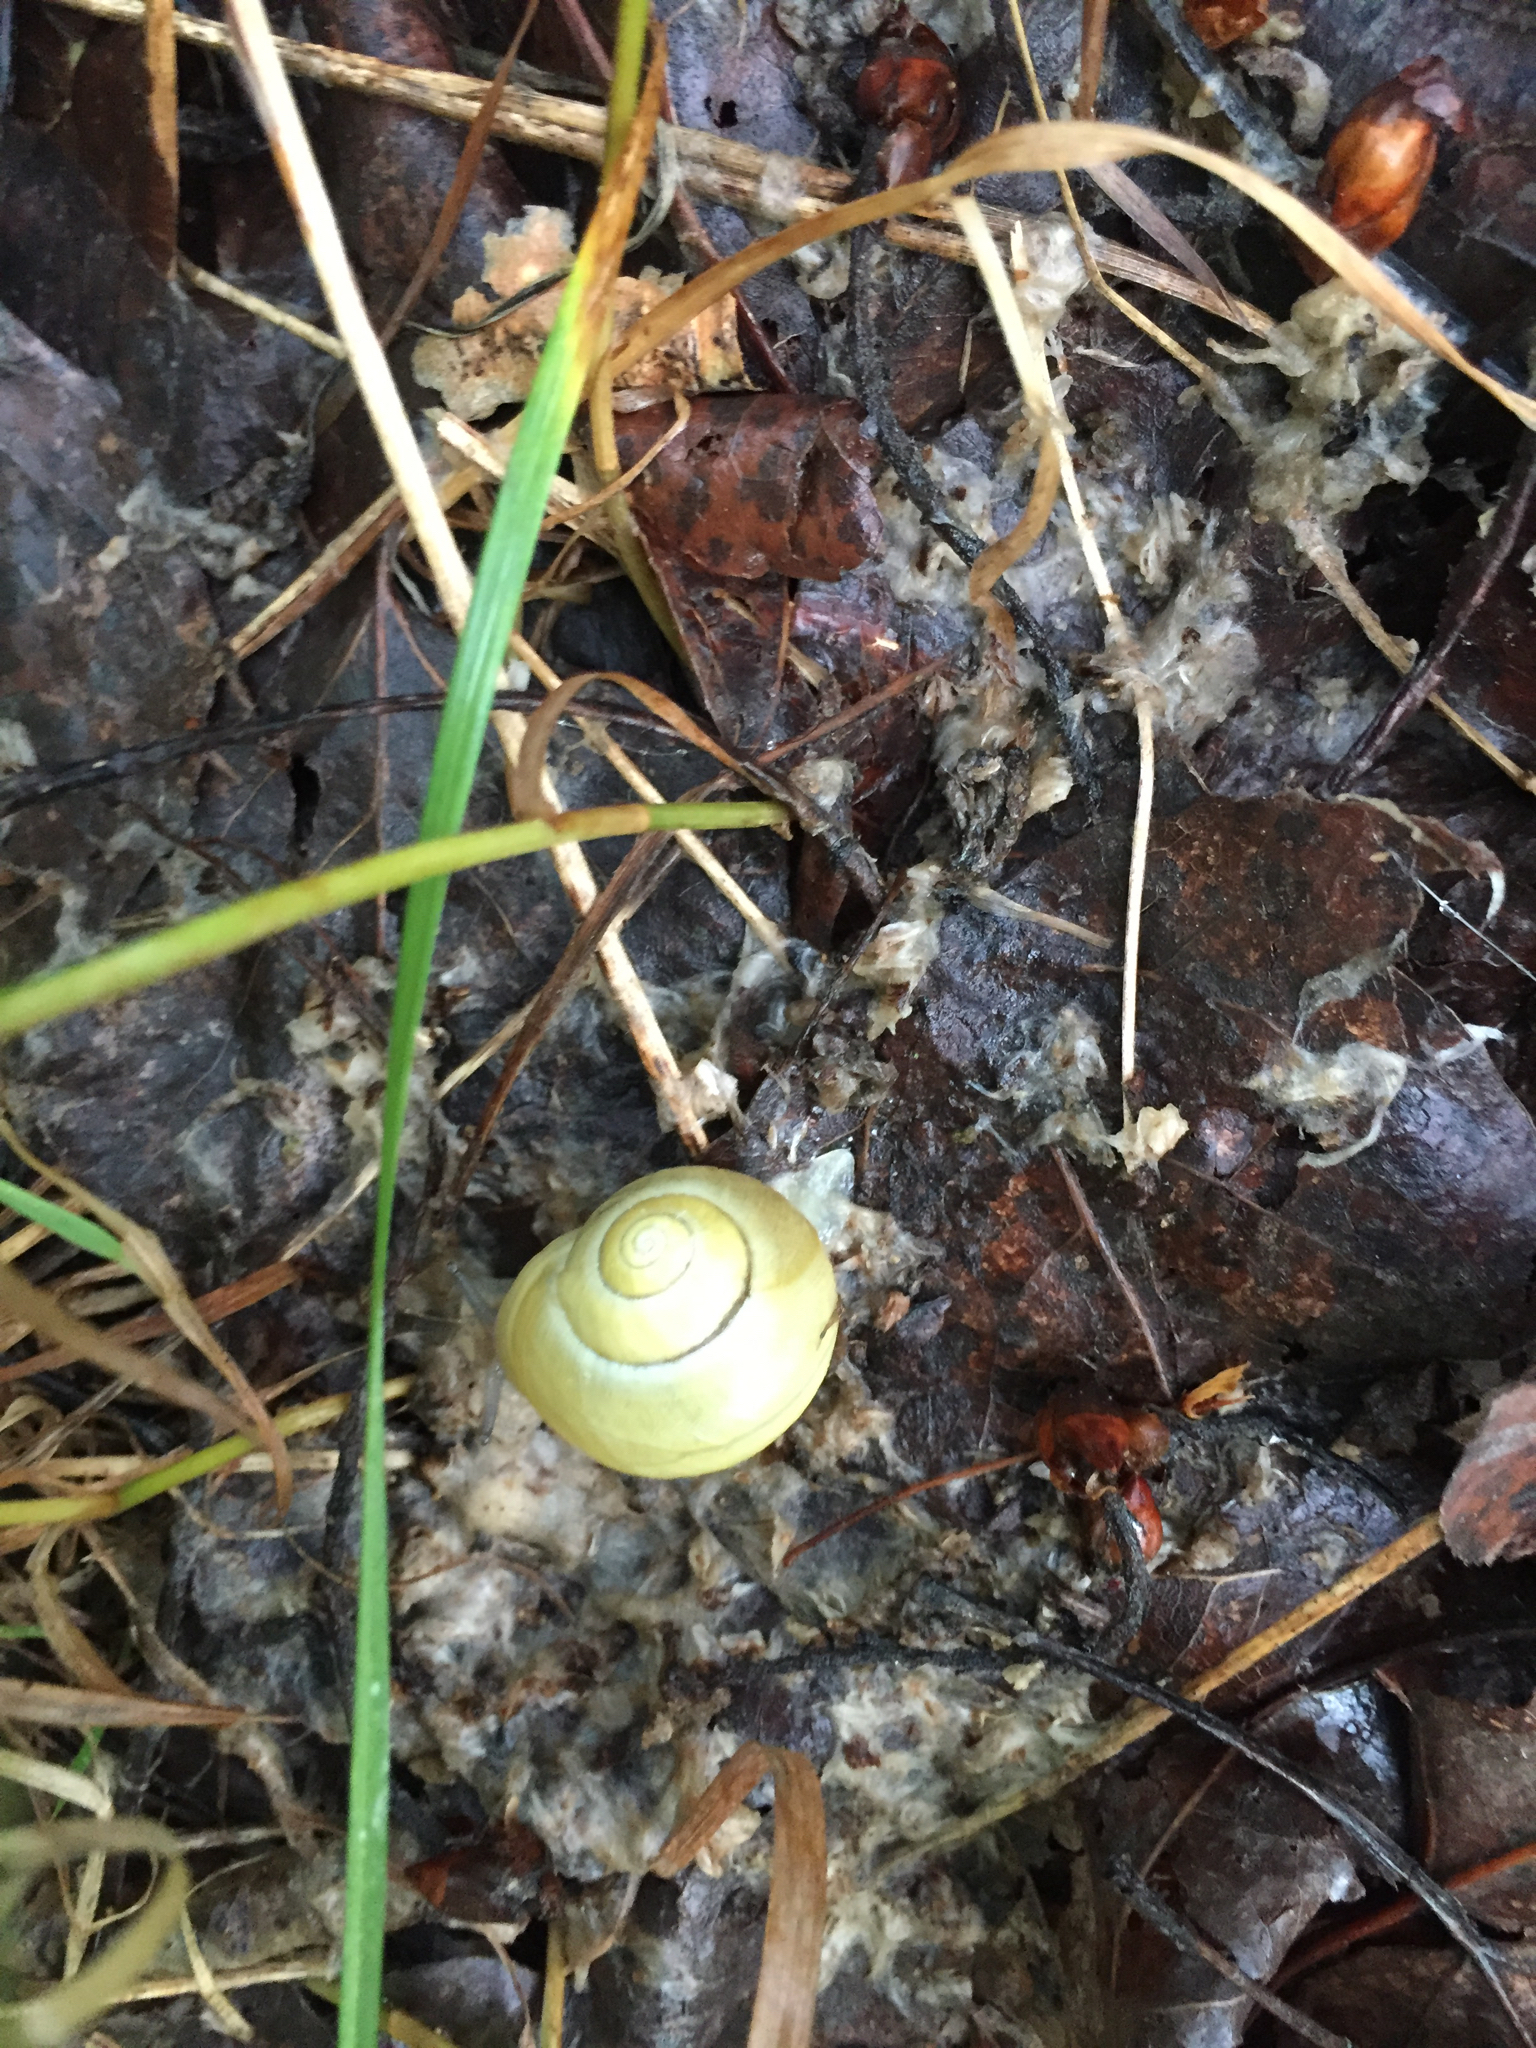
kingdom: Animalia
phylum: Mollusca
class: Gastropoda
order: Stylommatophora
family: Helicidae
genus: Cepaea
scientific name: Cepaea hortensis
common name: White-lip gardensnail
